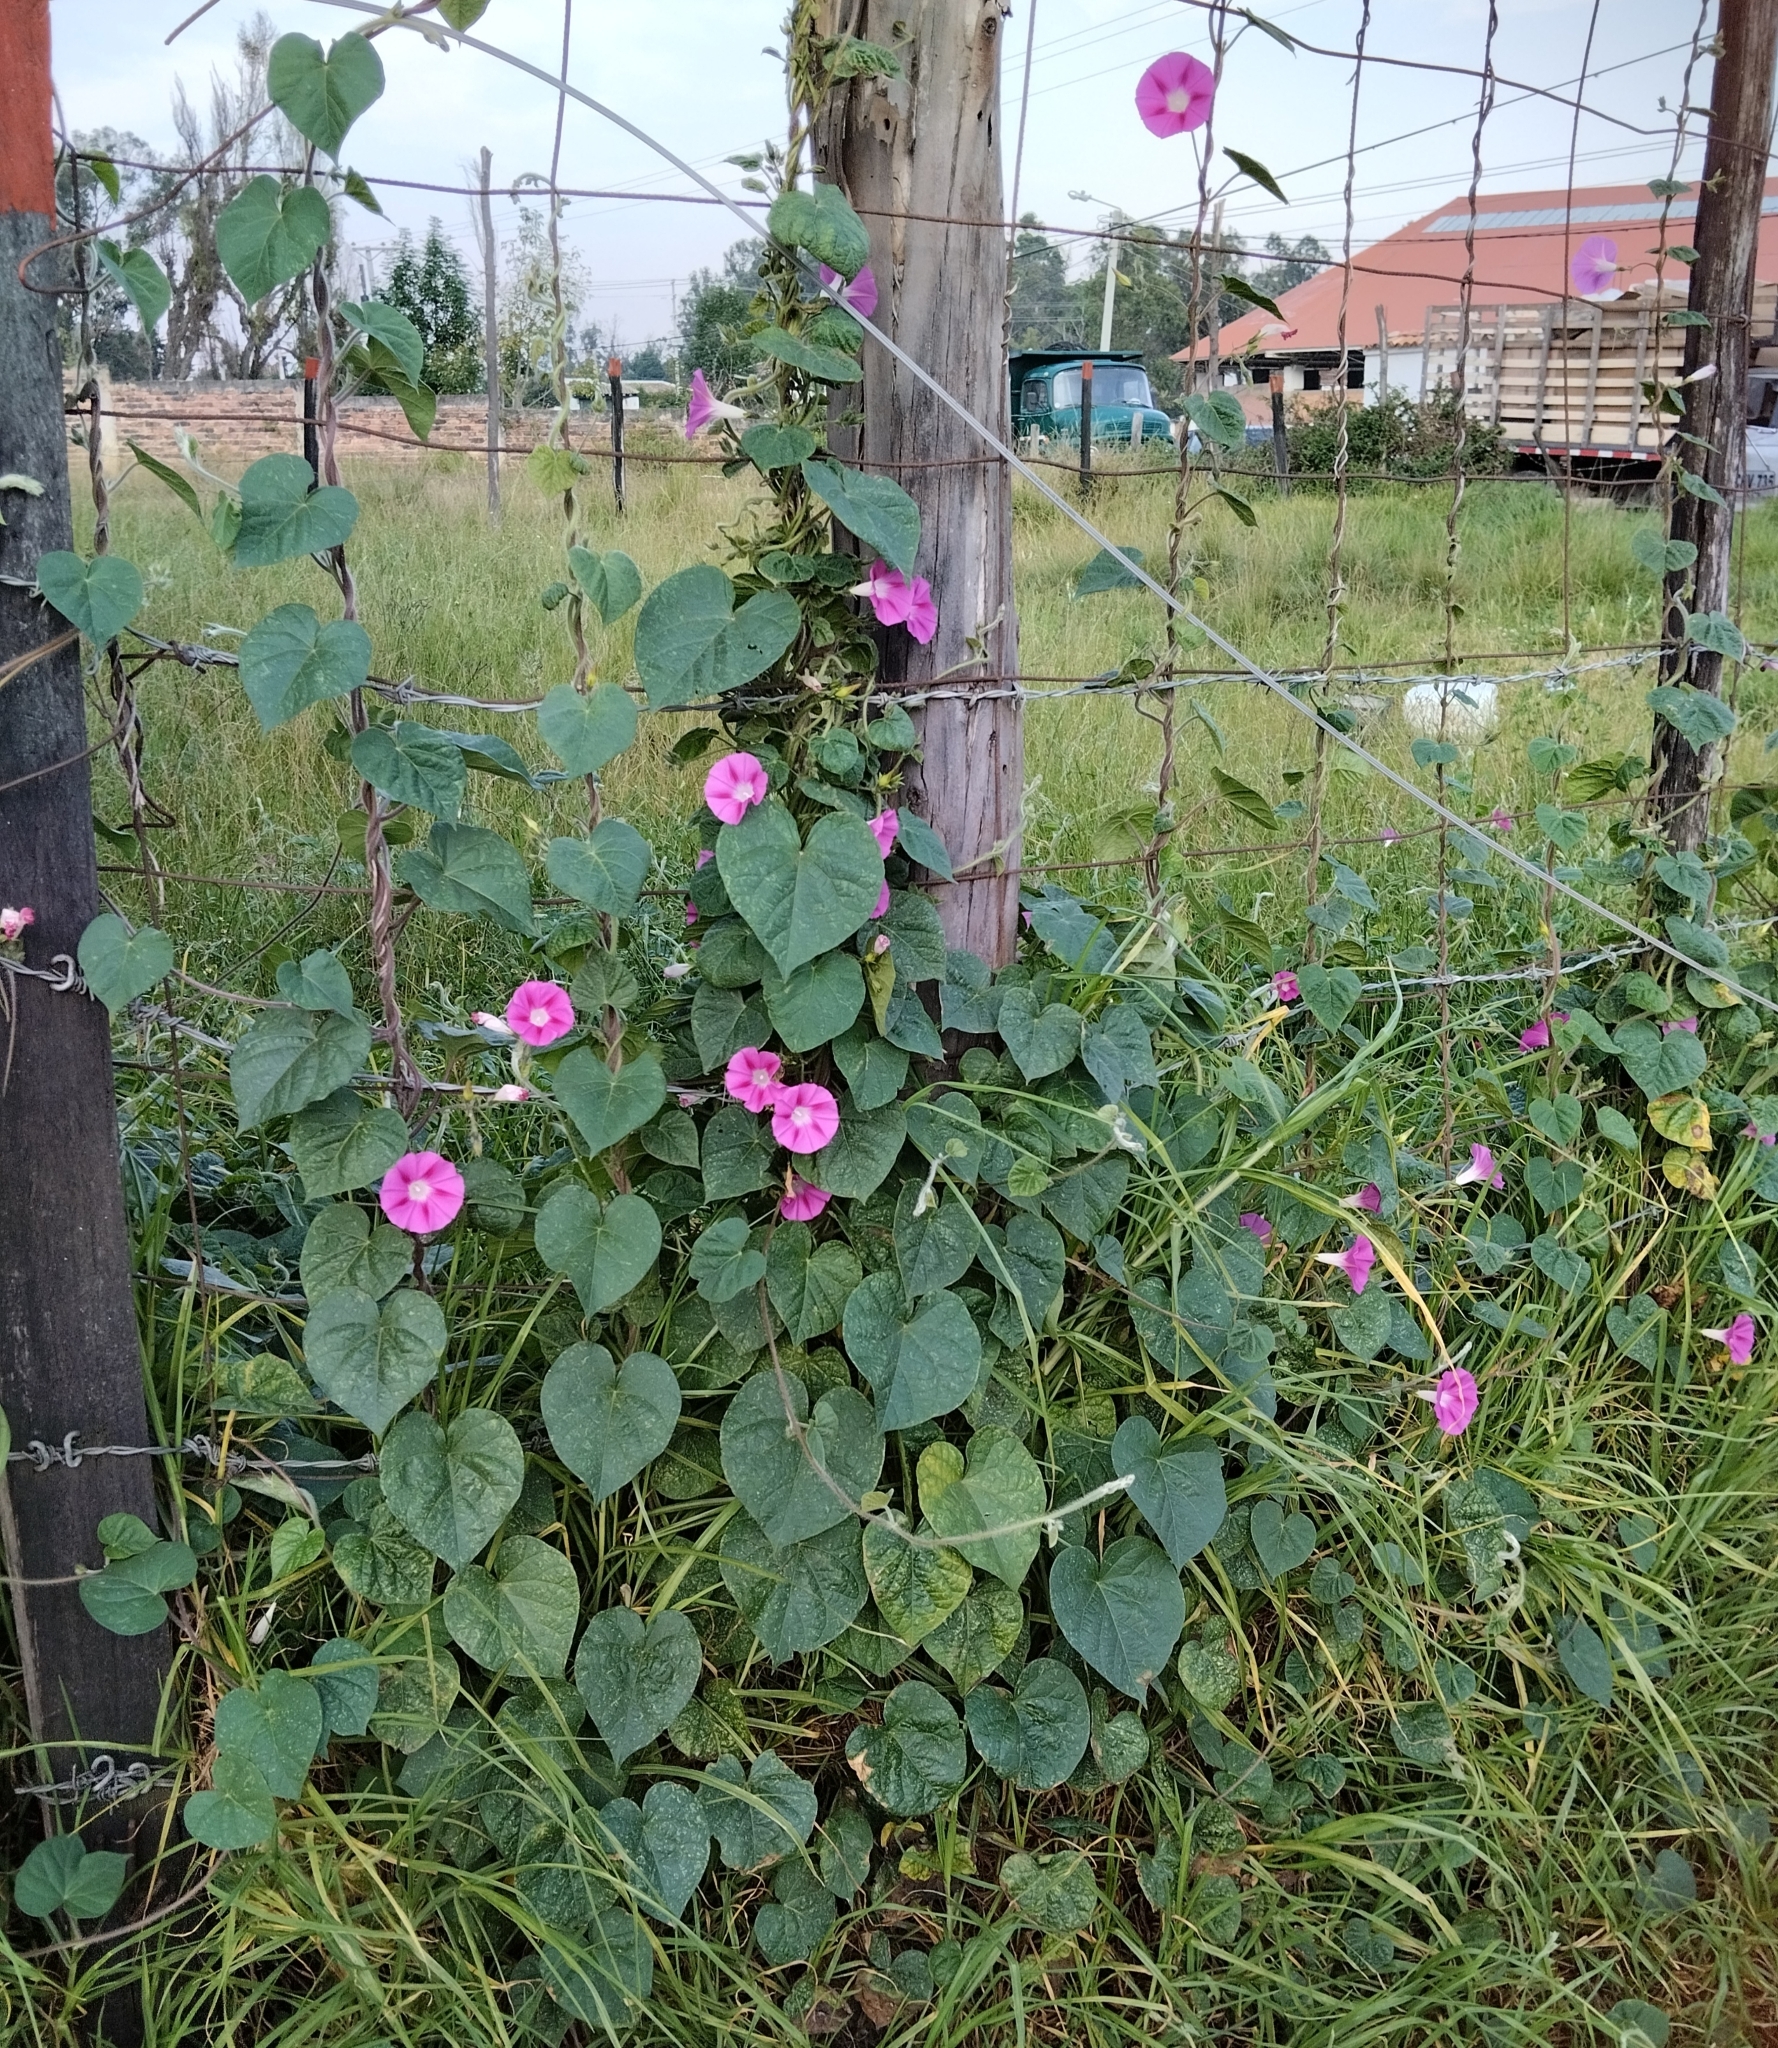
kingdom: Plantae
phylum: Tracheophyta
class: Magnoliopsida
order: Solanales
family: Convolvulaceae
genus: Ipomoea
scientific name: Ipomoea purpurea
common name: Common morning-glory
